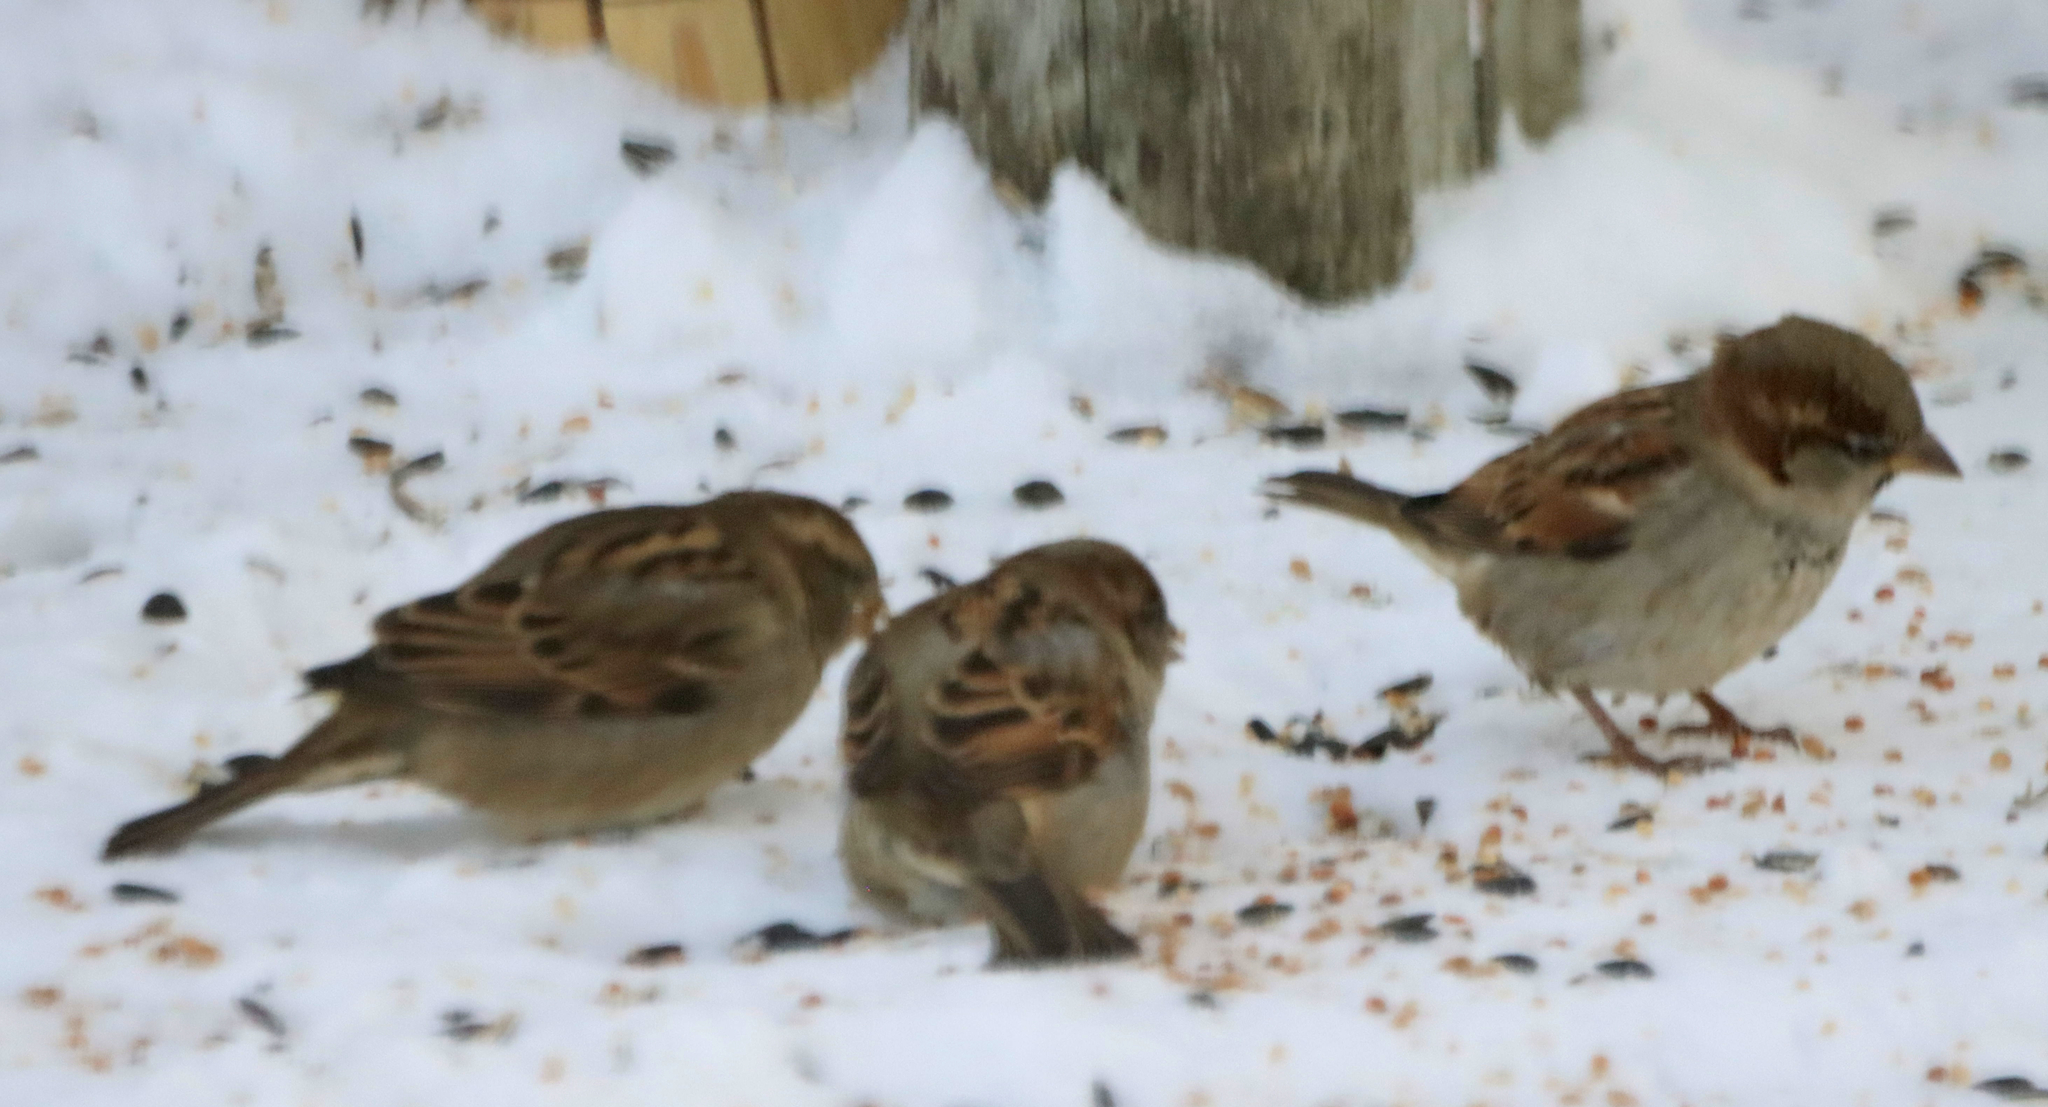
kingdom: Animalia
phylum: Chordata
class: Aves
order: Passeriformes
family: Passeridae
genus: Passer
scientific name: Passer domesticus
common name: House sparrow
